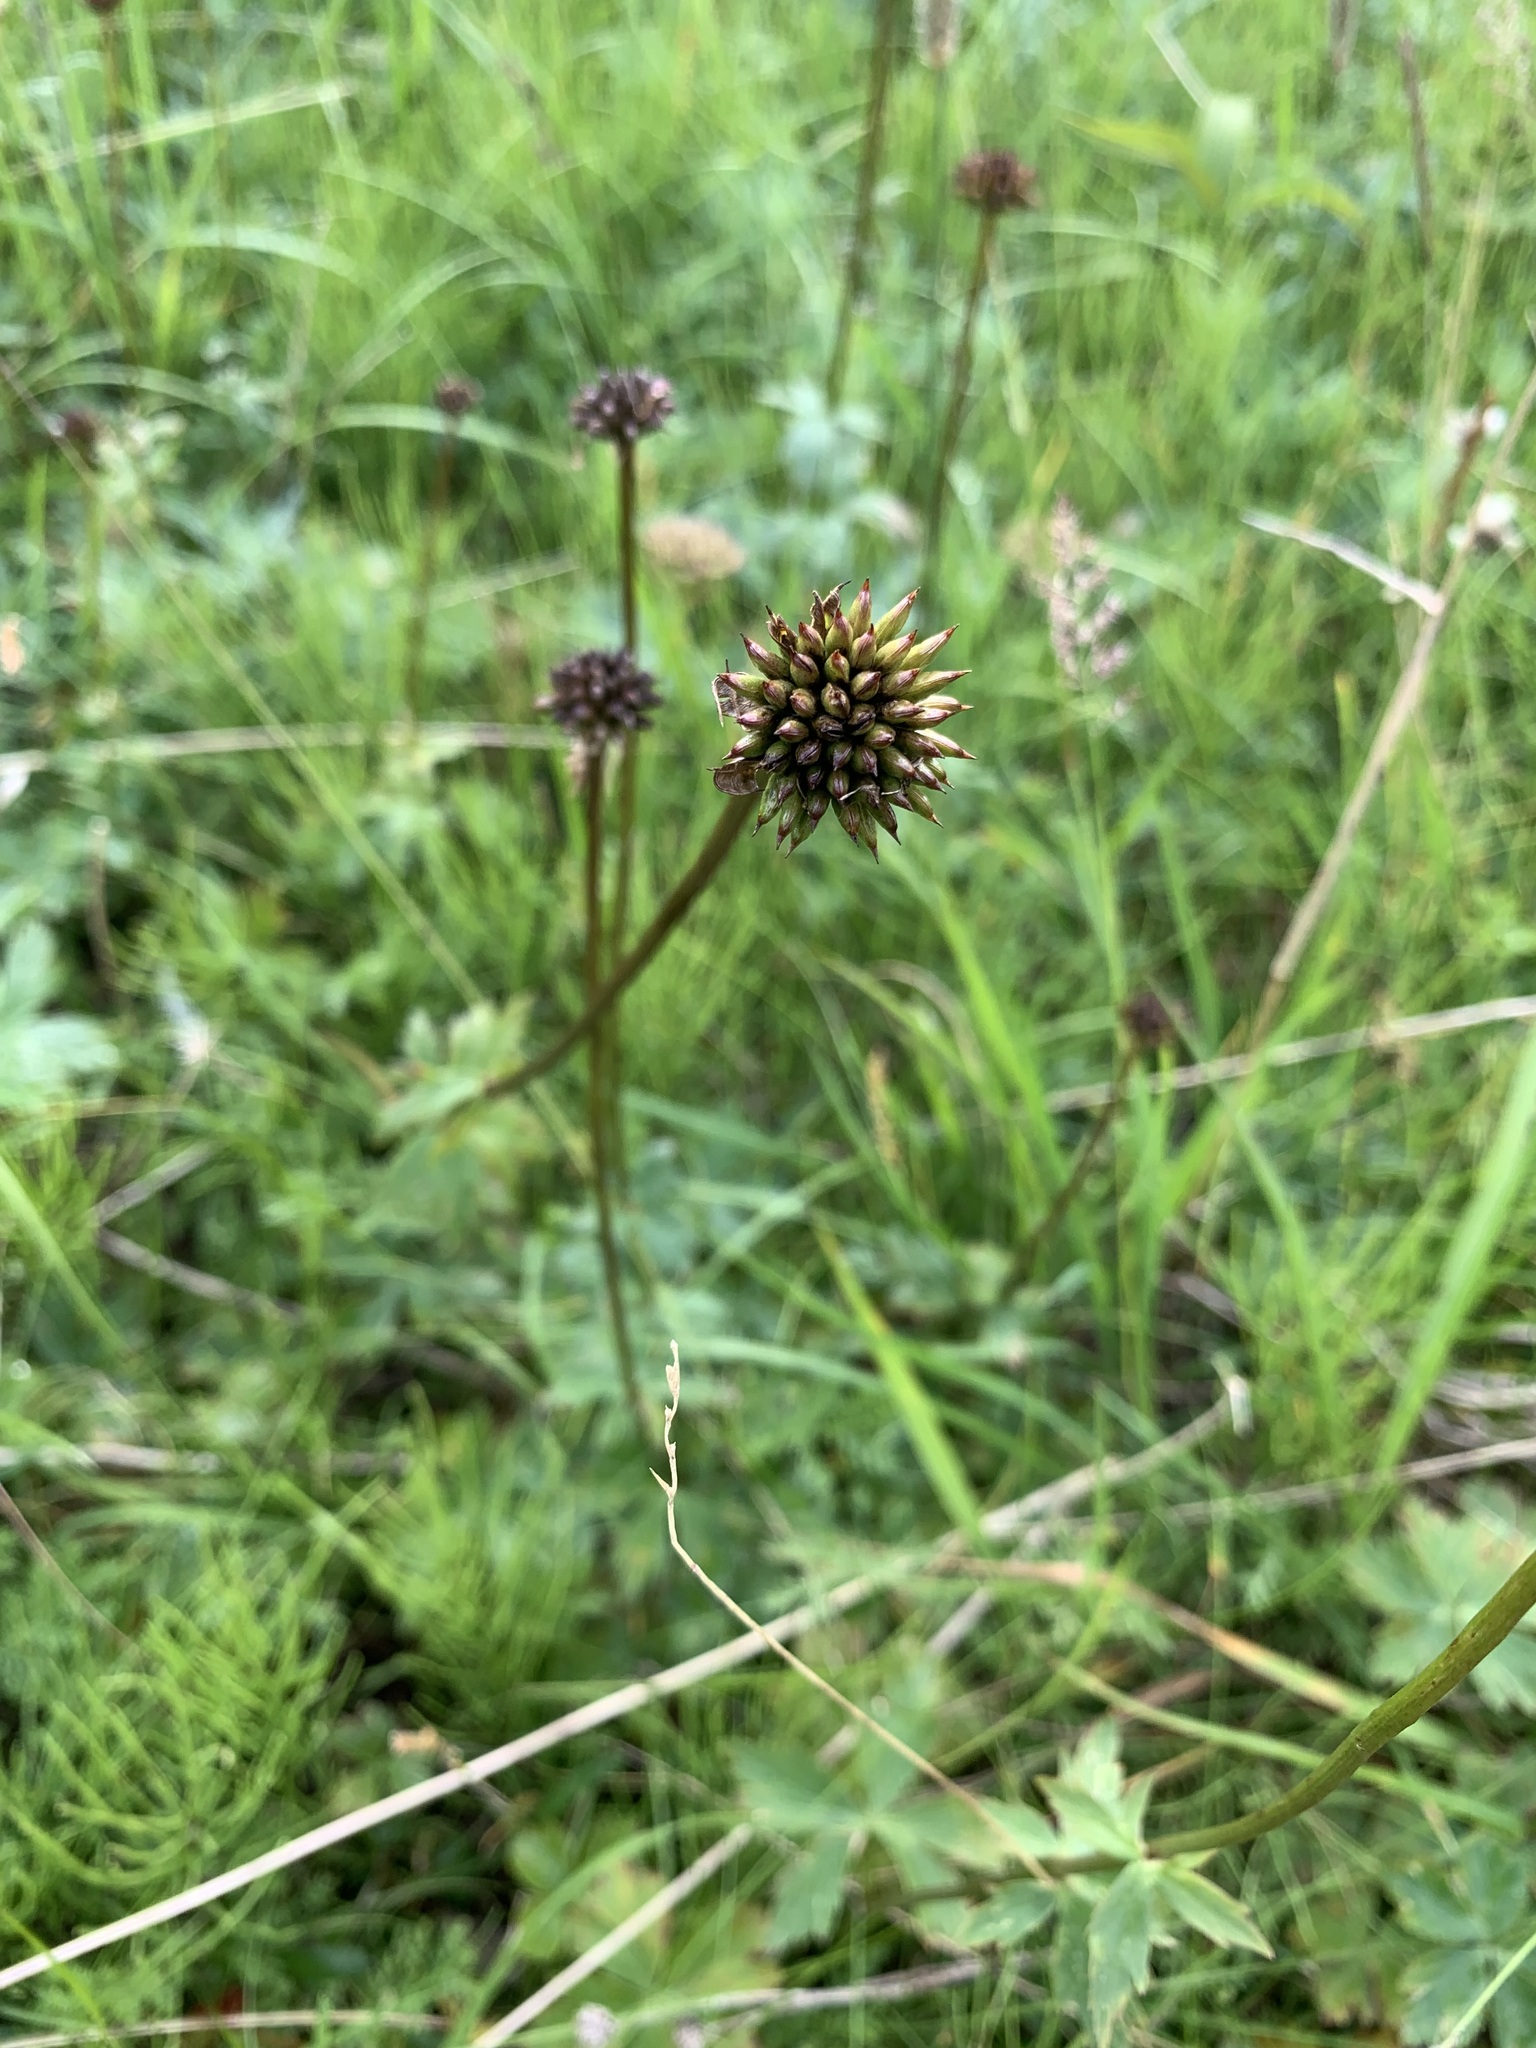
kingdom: Plantae
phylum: Tracheophyta
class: Magnoliopsida
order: Ranunculales
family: Ranunculaceae
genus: Trollius
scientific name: Trollius asiaticus
